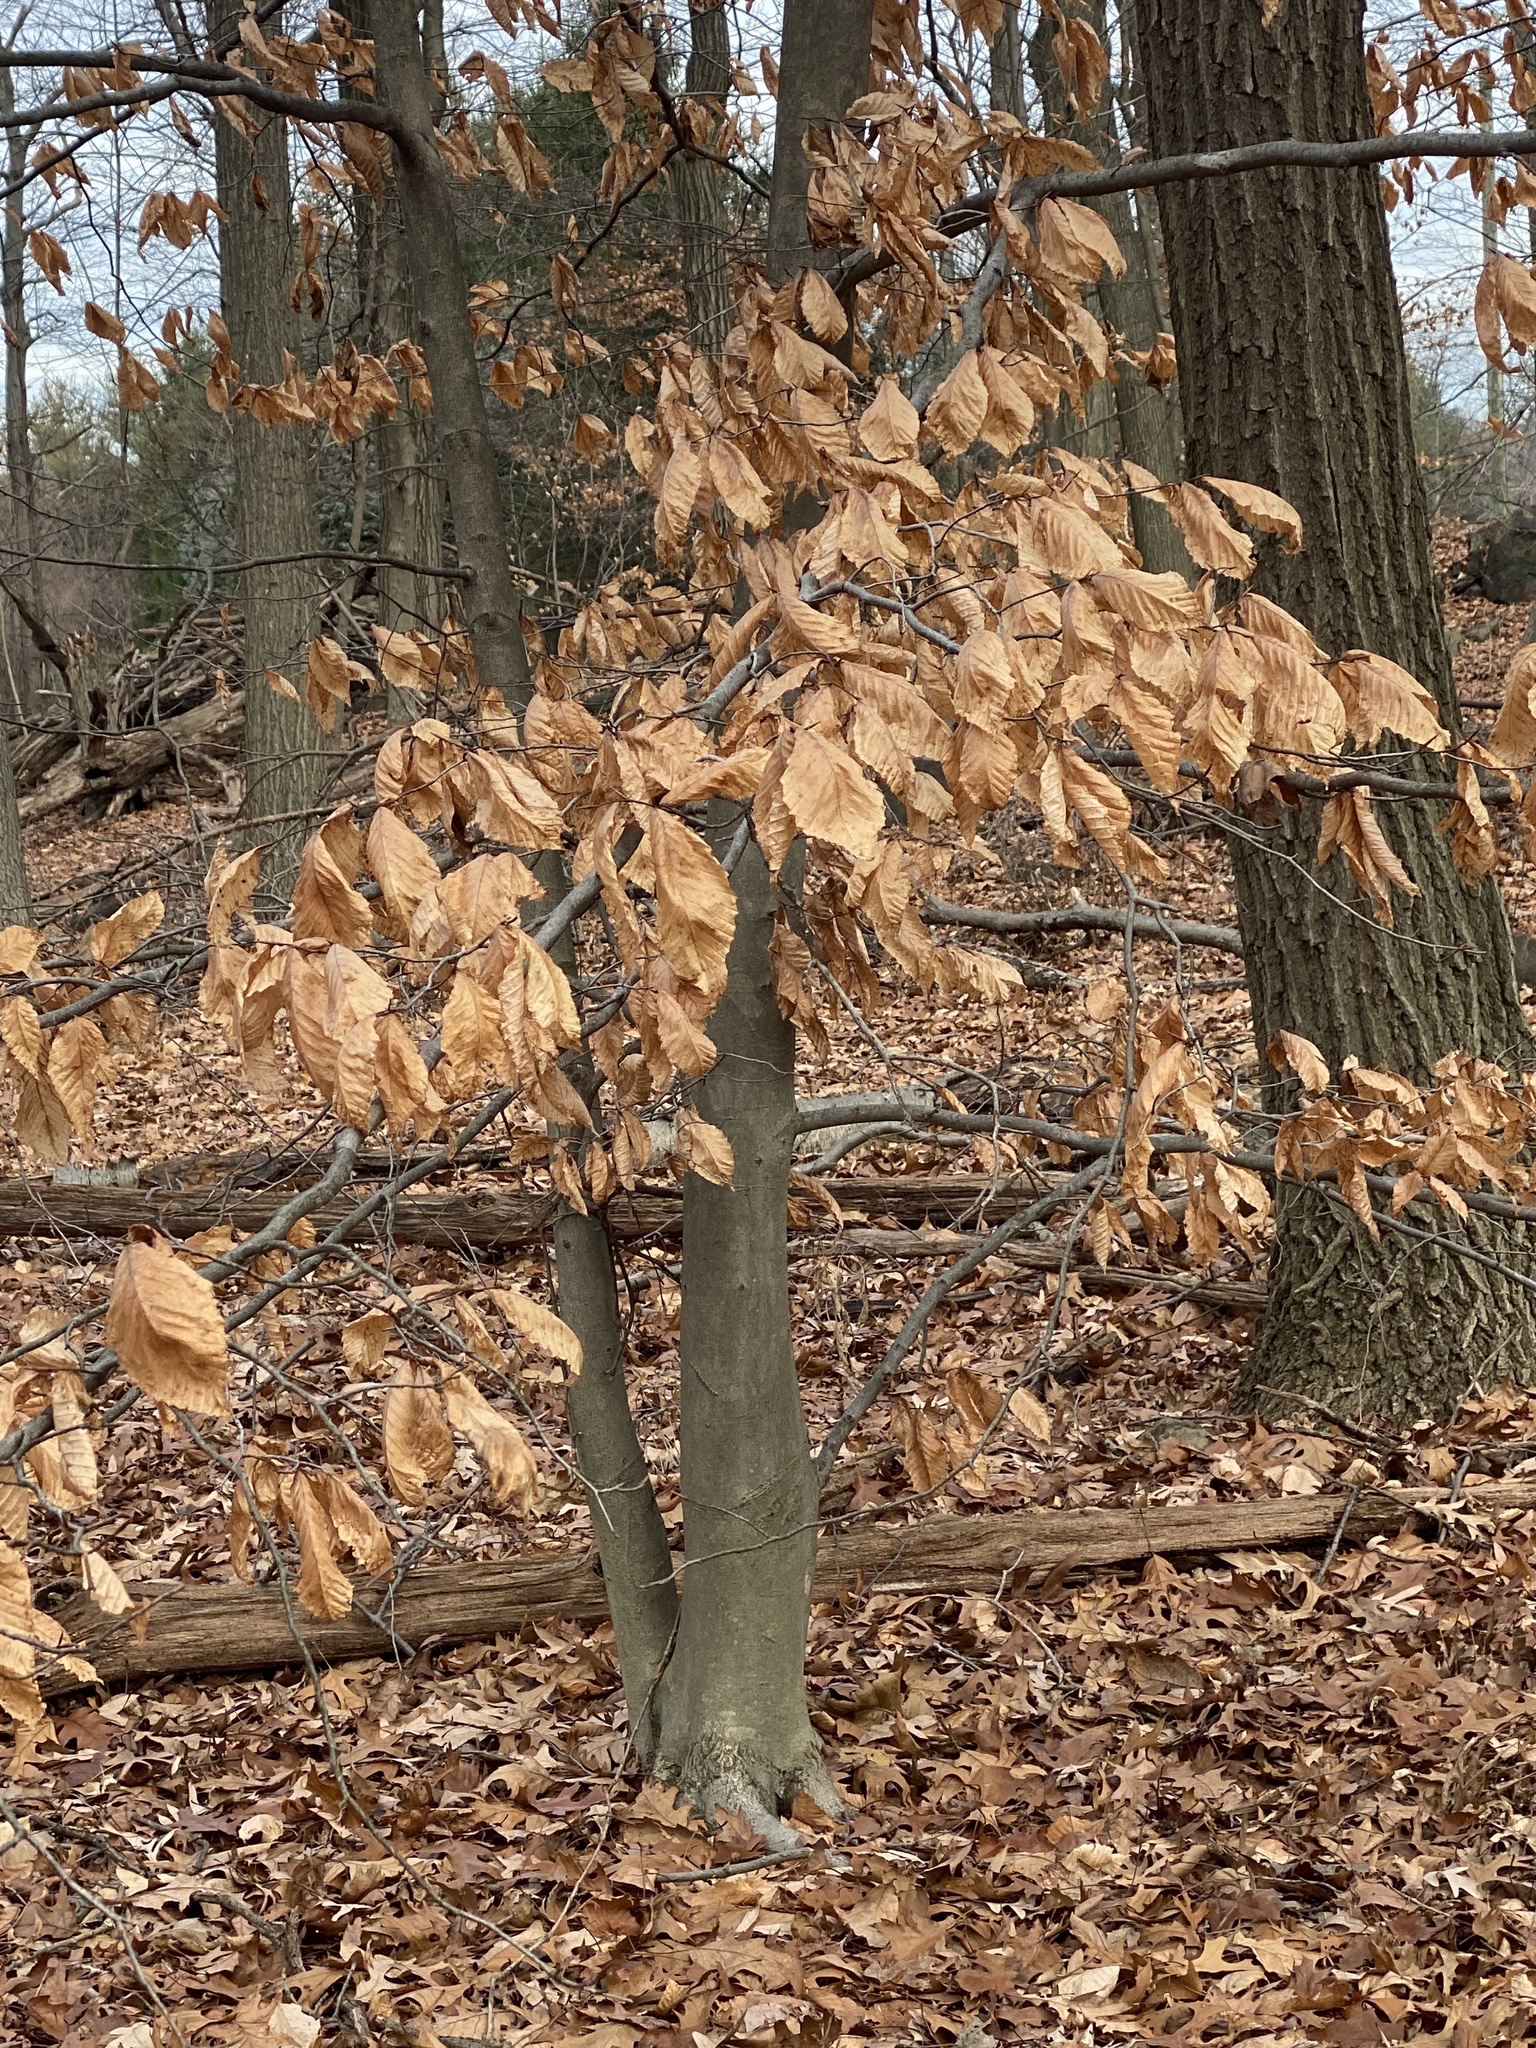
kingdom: Plantae
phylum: Tracheophyta
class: Magnoliopsida
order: Fagales
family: Fagaceae
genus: Fagus
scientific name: Fagus grandifolia
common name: American beech
